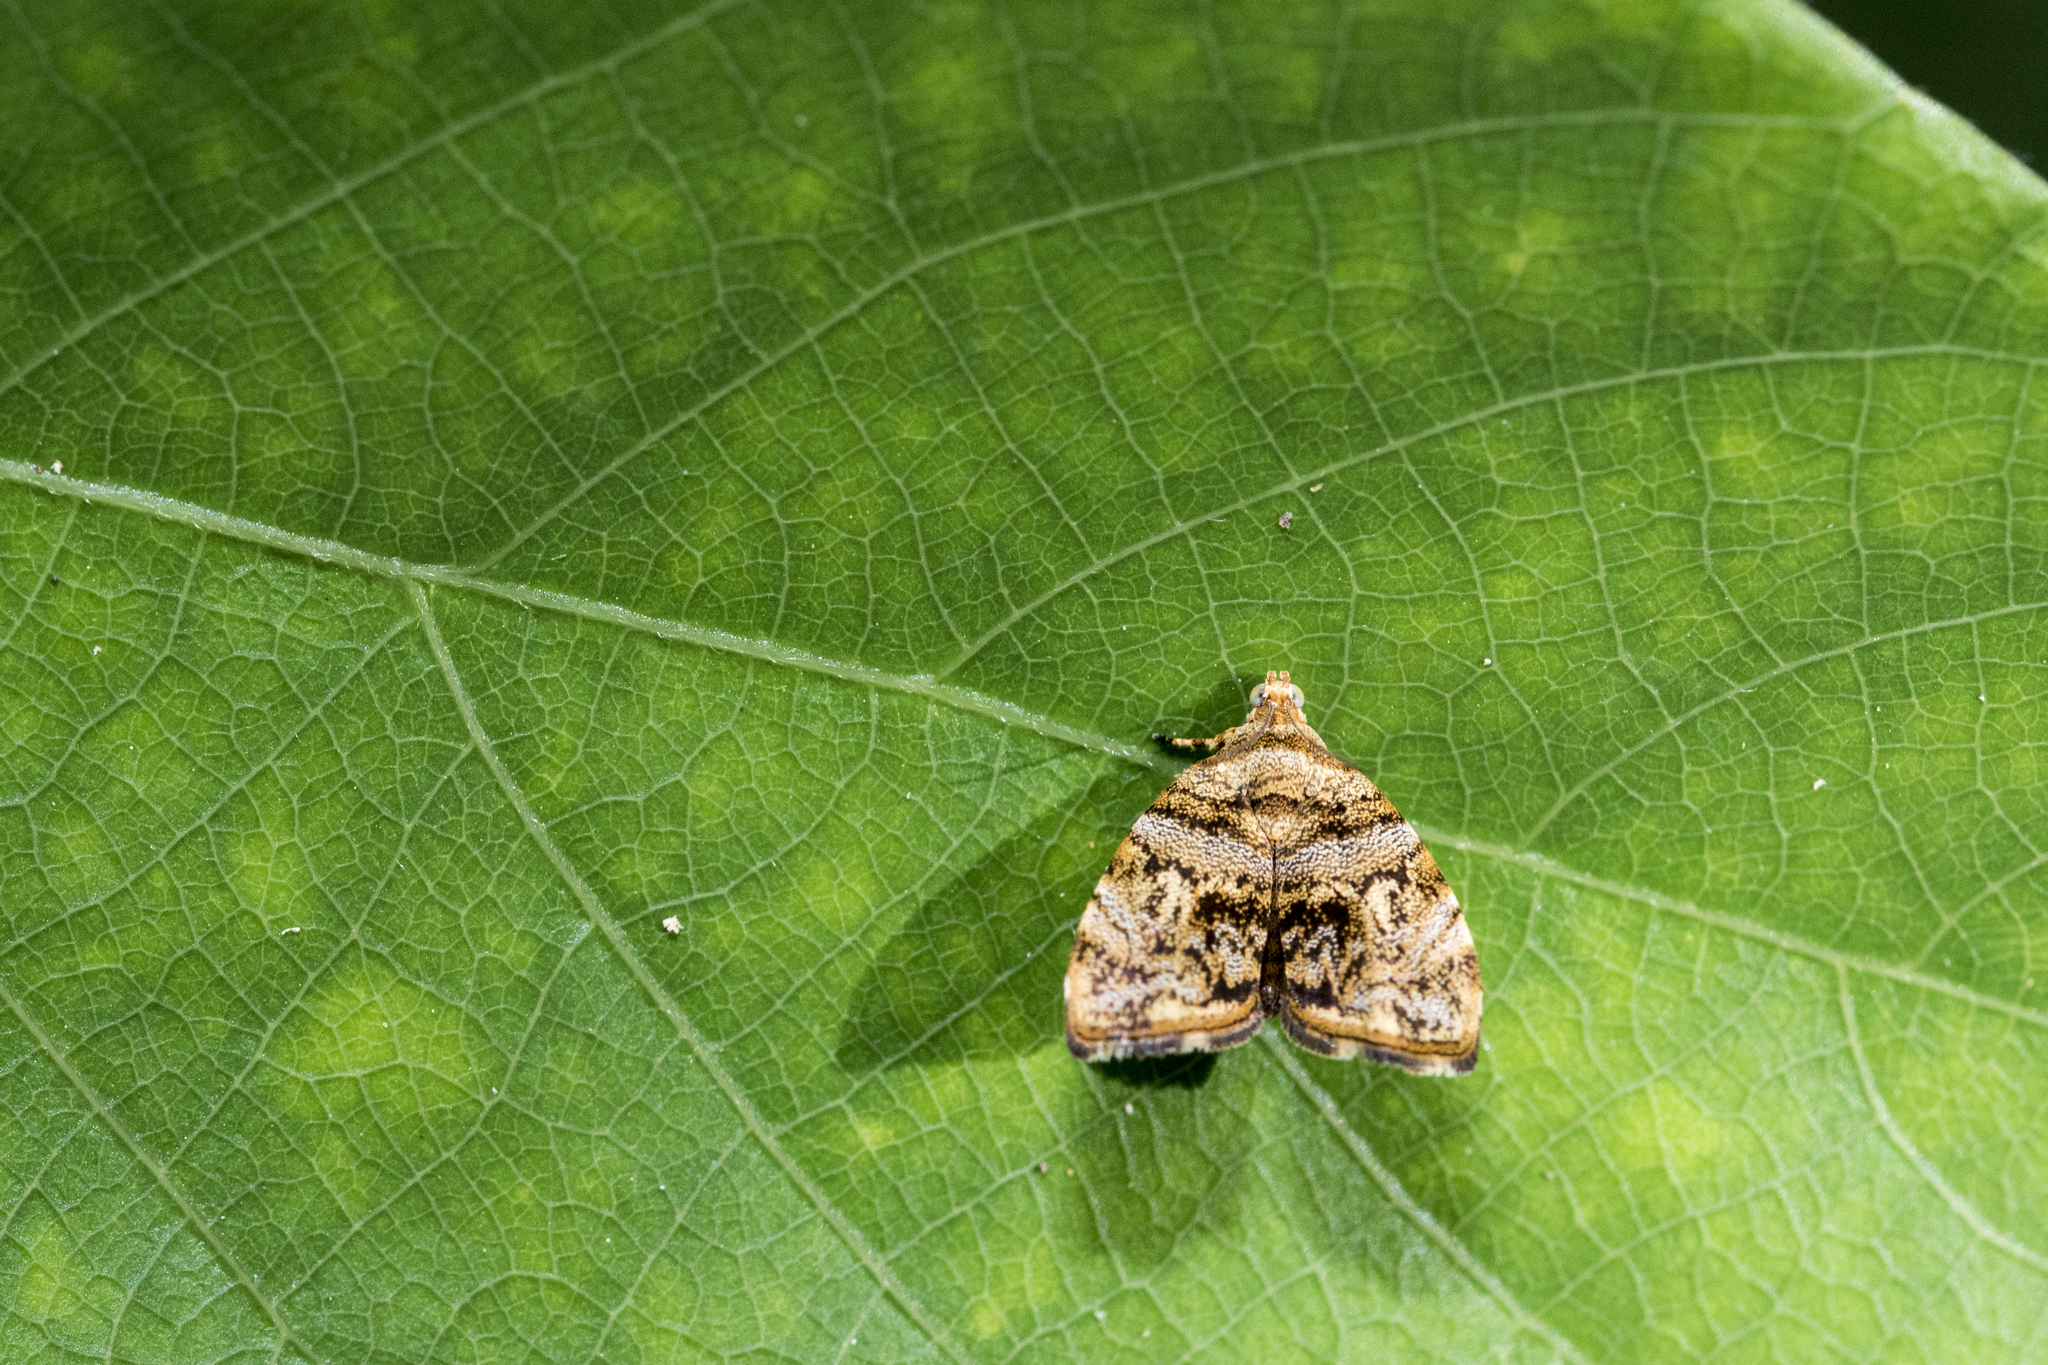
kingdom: Animalia
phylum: Arthropoda
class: Insecta
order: Lepidoptera
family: Choreutidae
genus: Choreutis
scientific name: Choreutis ophiosema
